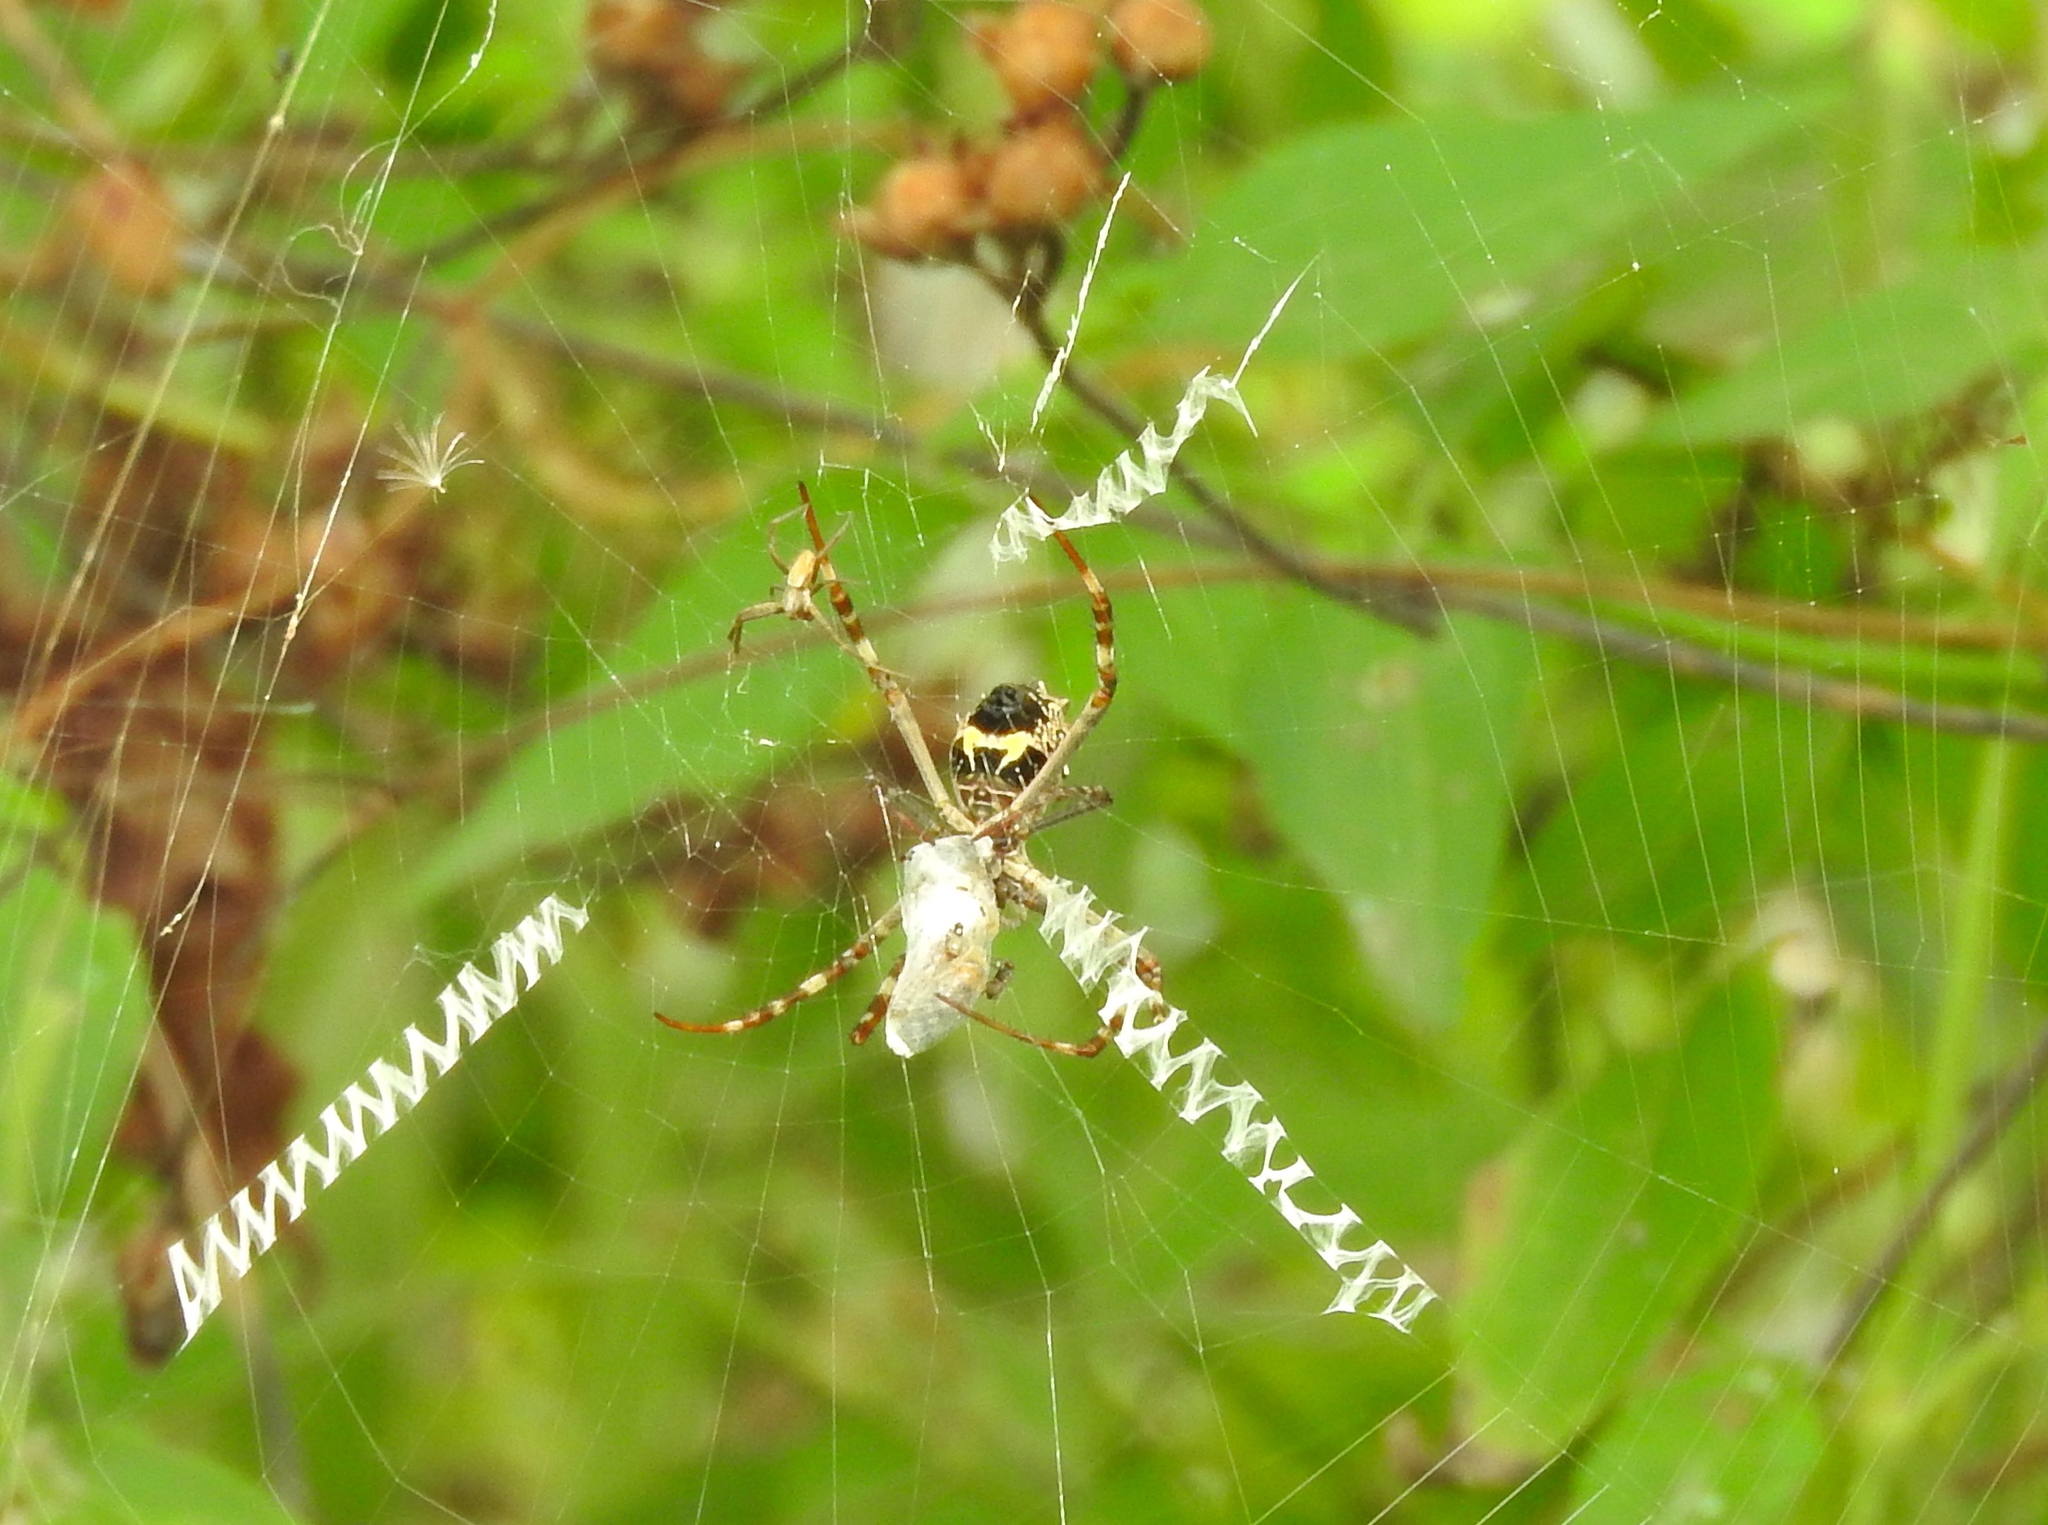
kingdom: Animalia
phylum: Arthropoda
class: Arachnida
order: Araneae
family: Araneidae
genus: Argiope
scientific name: Argiope argentata
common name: Orb weavers
